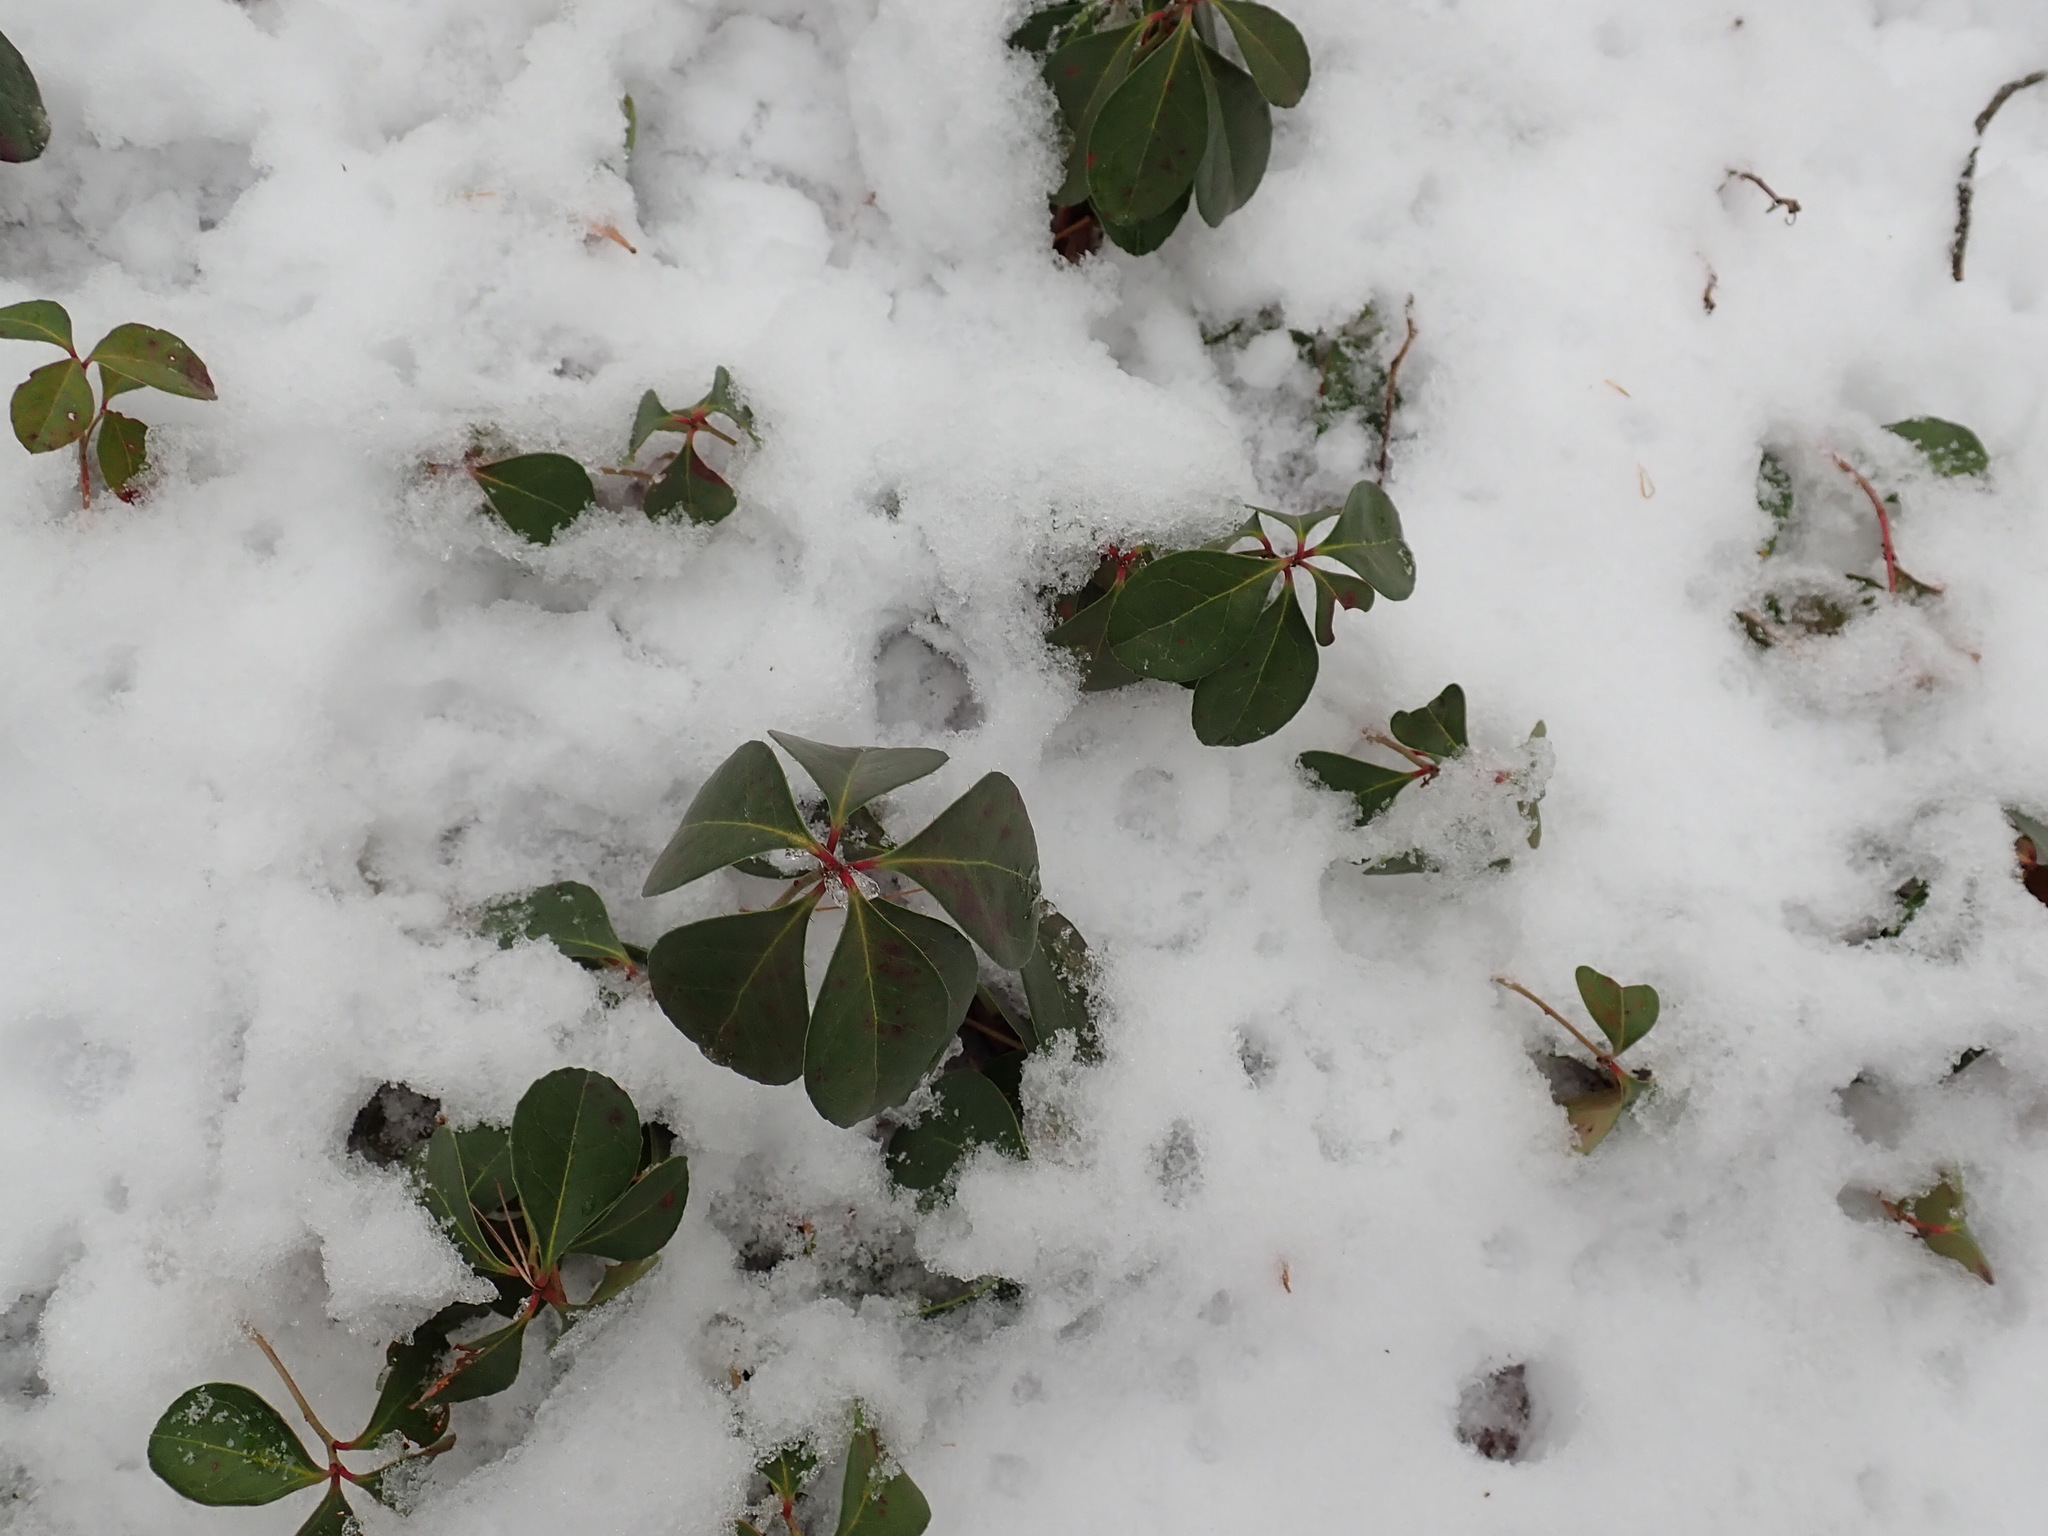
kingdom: Plantae
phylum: Tracheophyta
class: Magnoliopsida
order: Ericales
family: Ericaceae
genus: Gaultheria
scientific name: Gaultheria procumbens
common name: Checkerberry
